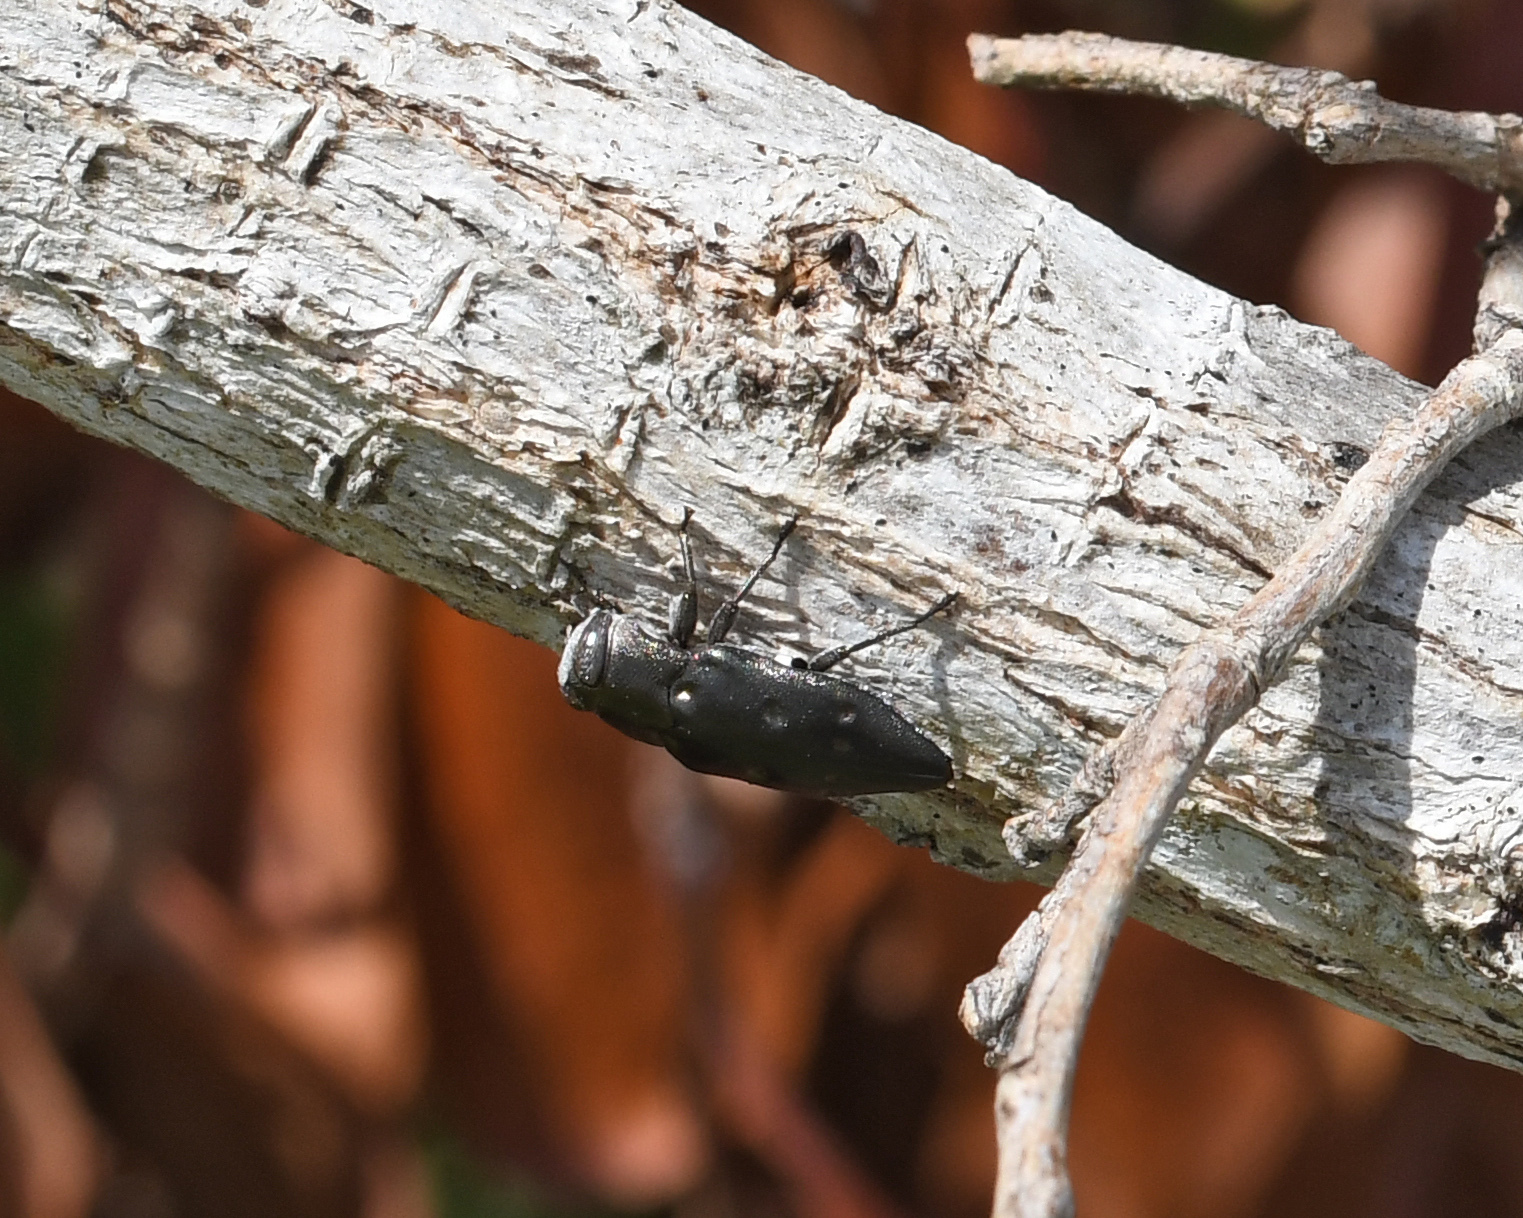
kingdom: Animalia
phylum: Arthropoda
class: Insecta
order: Coleoptera
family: Buprestidae
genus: Chrysobothris
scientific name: Chrysobothris megacephala
